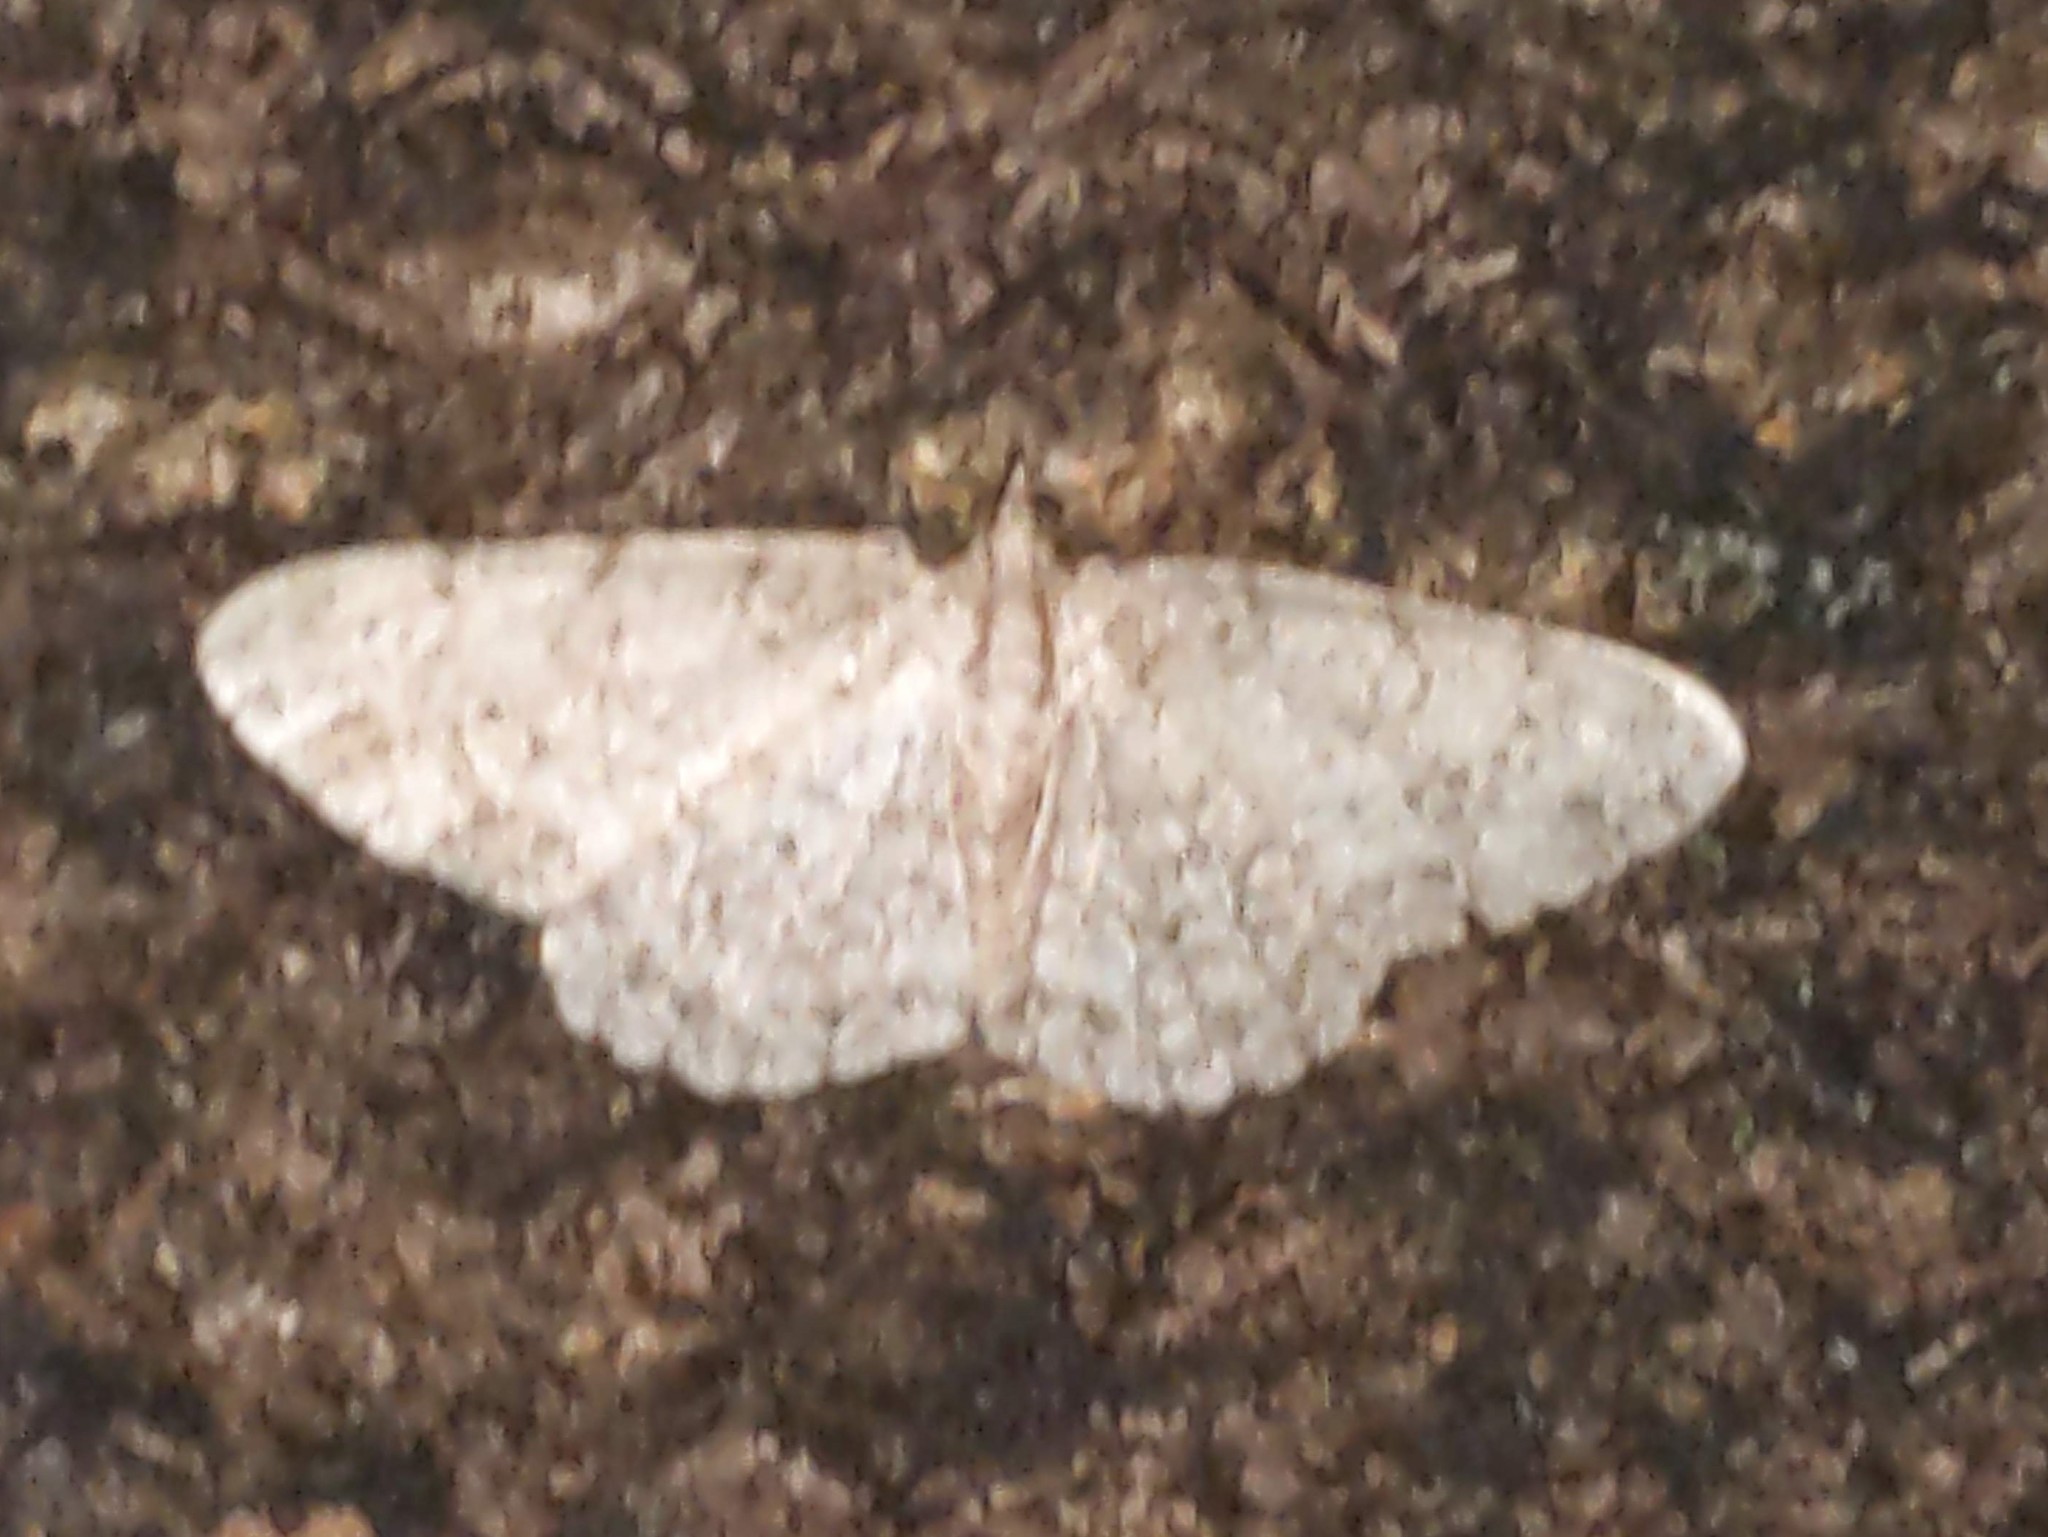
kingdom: Animalia
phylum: Arthropoda
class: Insecta
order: Lepidoptera
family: Geometridae
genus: Protoboarmia
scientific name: Protoboarmia porcelaria
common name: Porcelain gray
